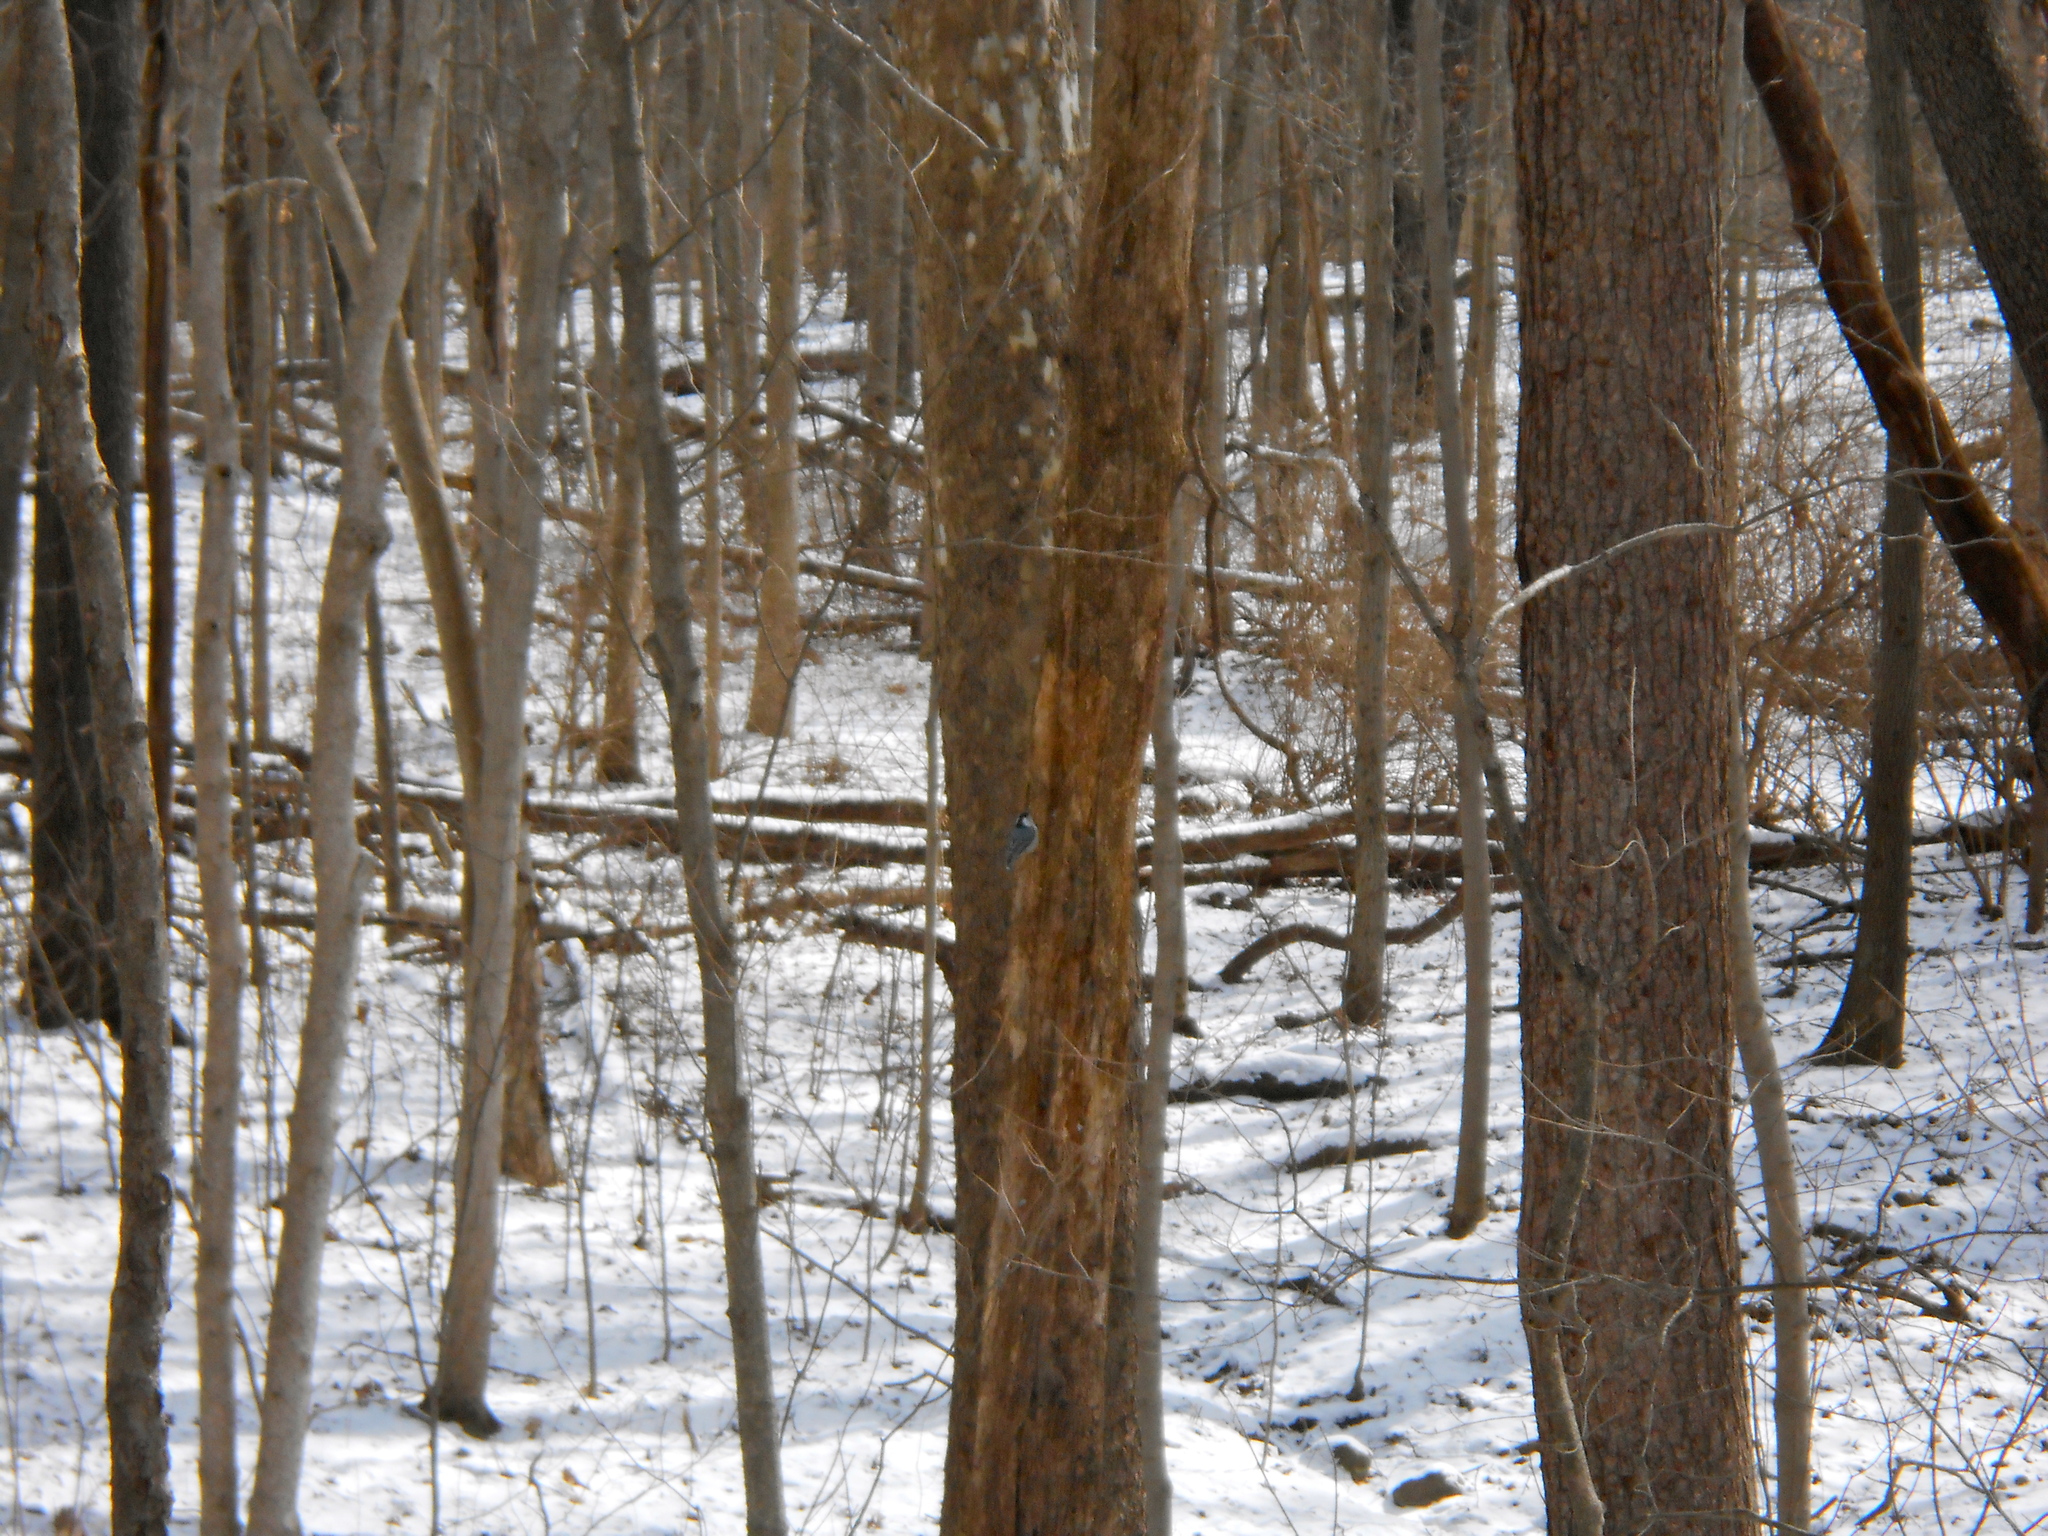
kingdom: Animalia
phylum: Chordata
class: Aves
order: Passeriformes
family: Sittidae
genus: Sitta
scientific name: Sitta carolinensis
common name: White-breasted nuthatch
